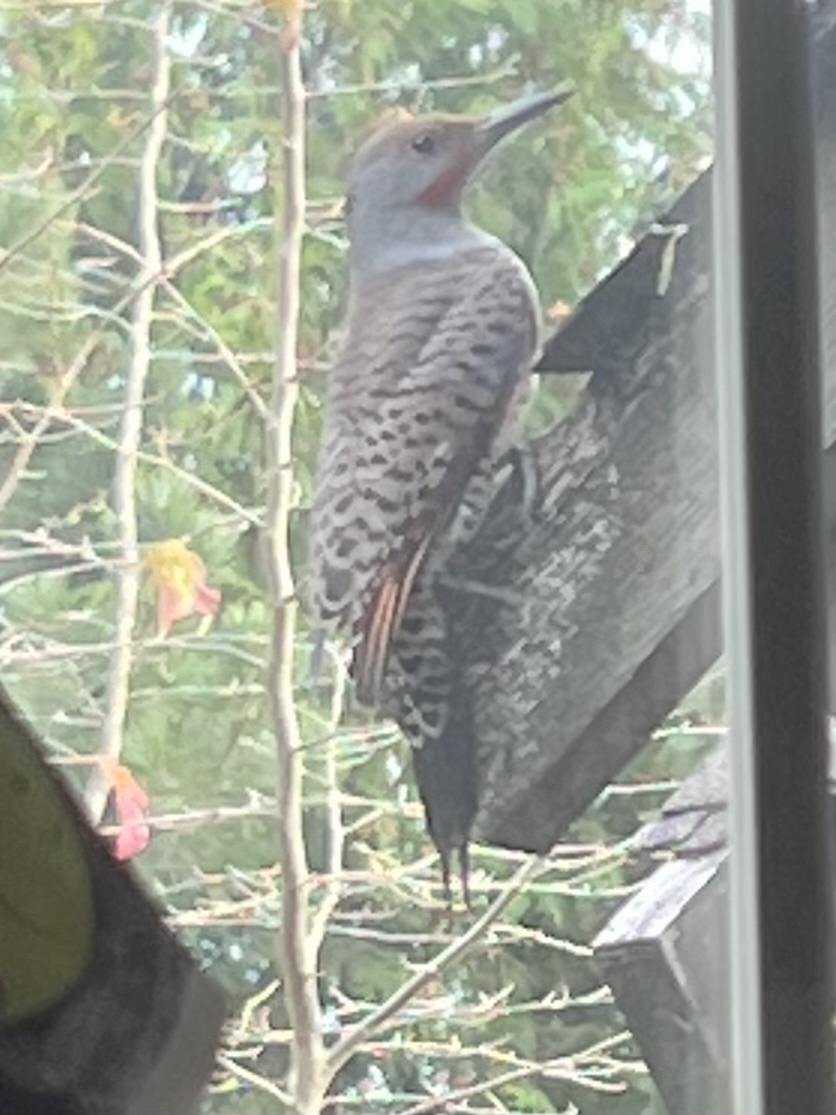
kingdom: Animalia
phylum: Chordata
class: Aves
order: Piciformes
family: Picidae
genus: Colaptes
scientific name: Colaptes auratus
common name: Northern flicker
